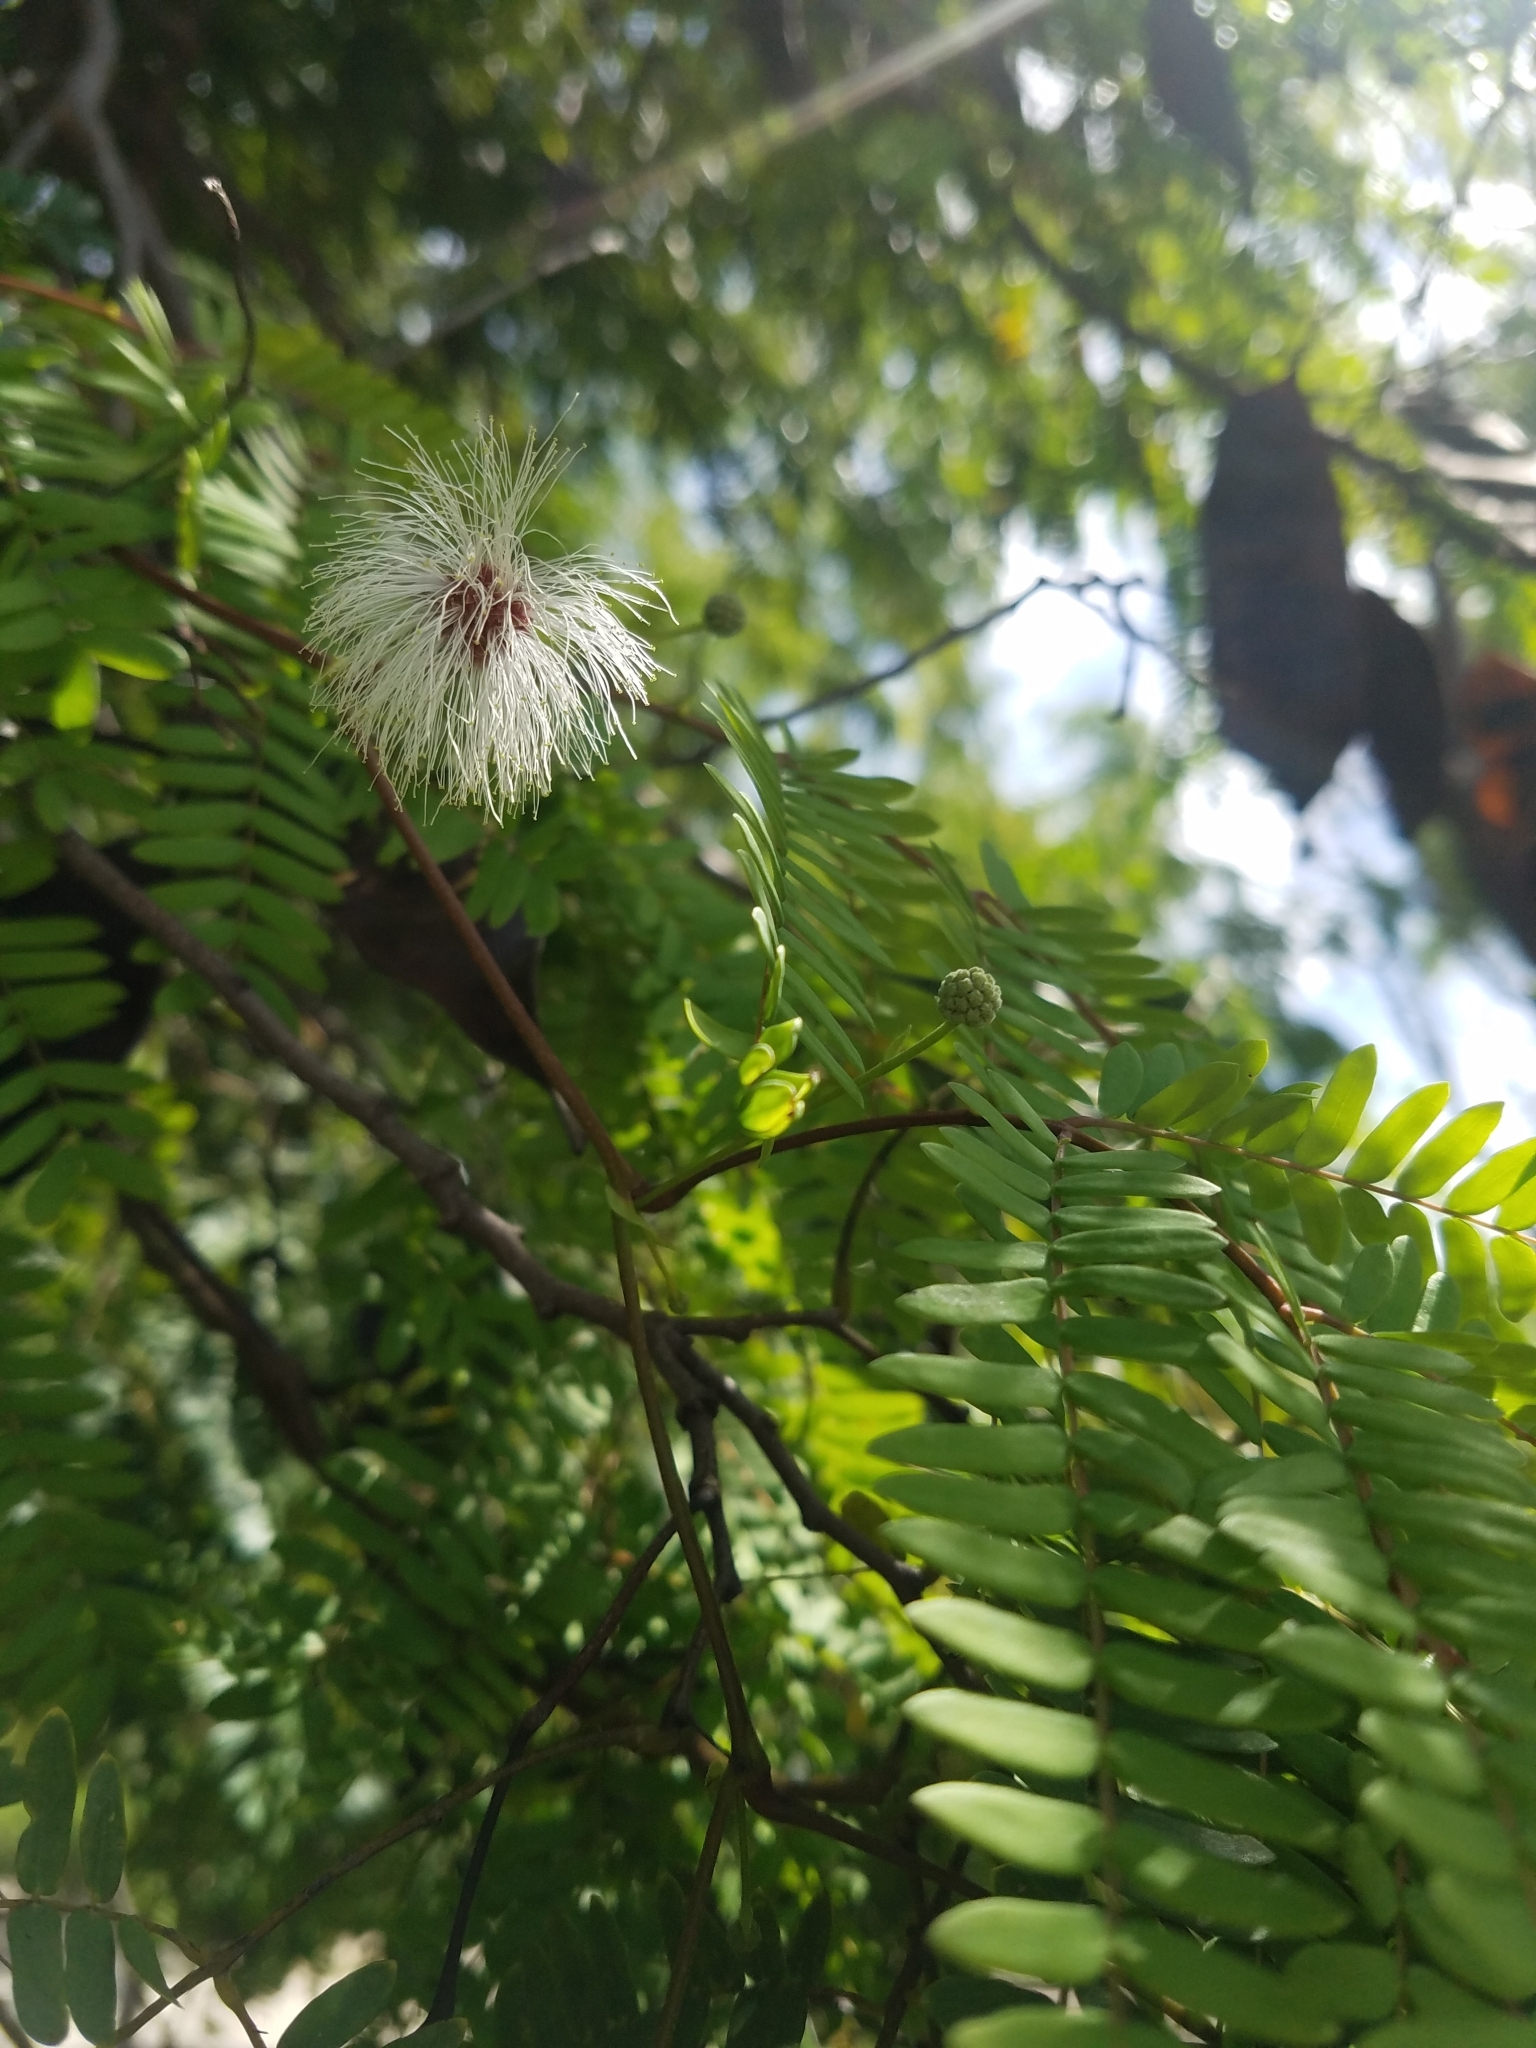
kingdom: Plantae
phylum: Tracheophyta
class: Magnoliopsida
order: Fabales
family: Fabaceae
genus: Lysiloma
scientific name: Lysiloma latisiliquum
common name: Wild tamarind
